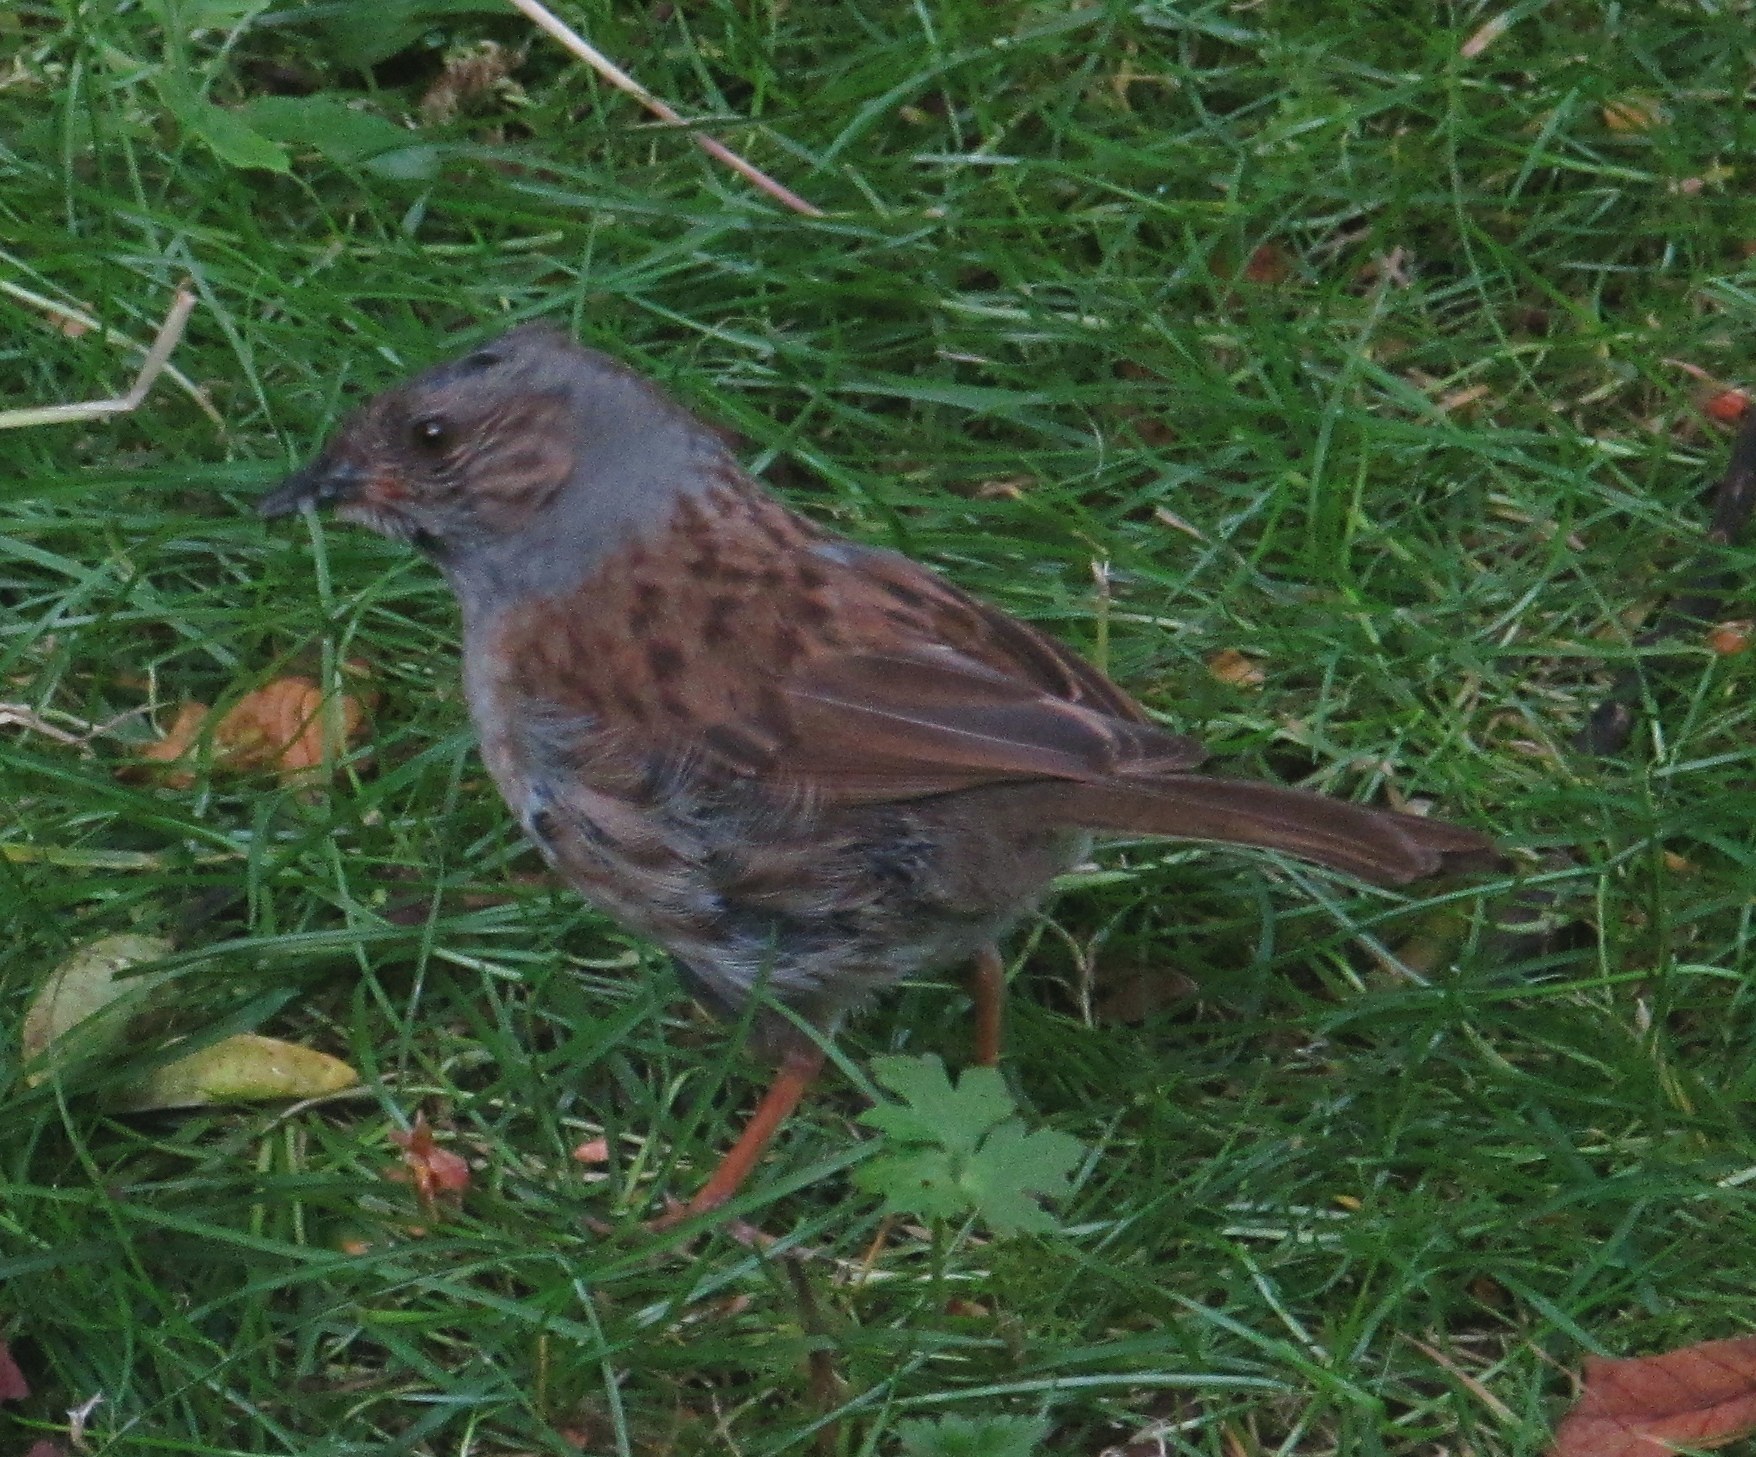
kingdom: Animalia
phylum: Chordata
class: Aves
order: Passeriformes
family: Prunellidae
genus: Prunella
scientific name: Prunella modularis
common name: Dunnock
